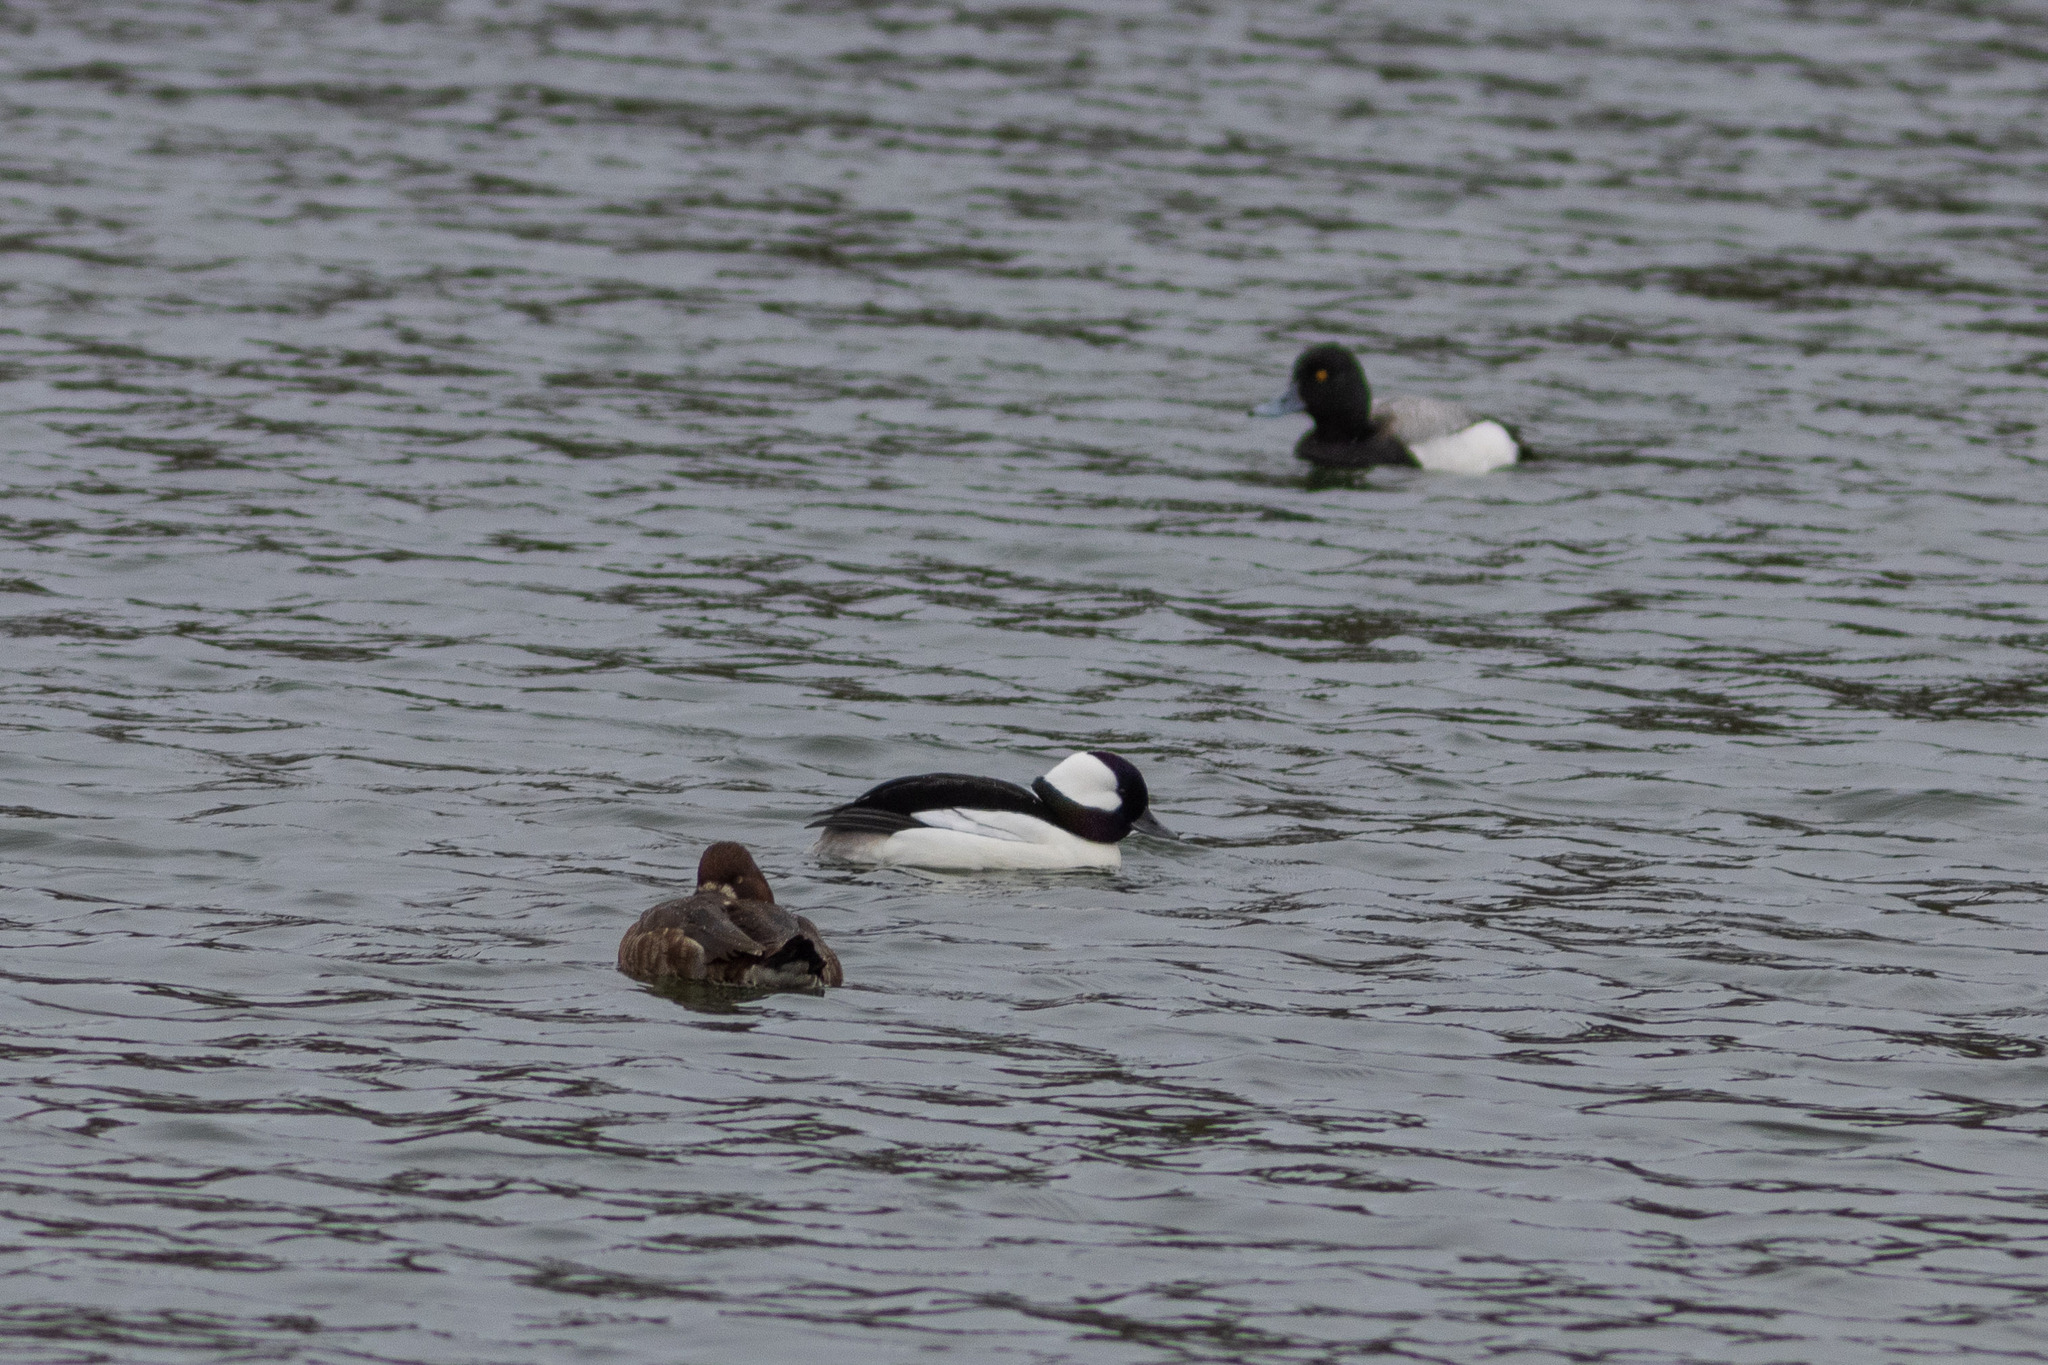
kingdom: Animalia
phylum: Chordata
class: Aves
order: Anseriformes
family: Anatidae
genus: Bucephala
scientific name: Bucephala albeola
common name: Bufflehead
